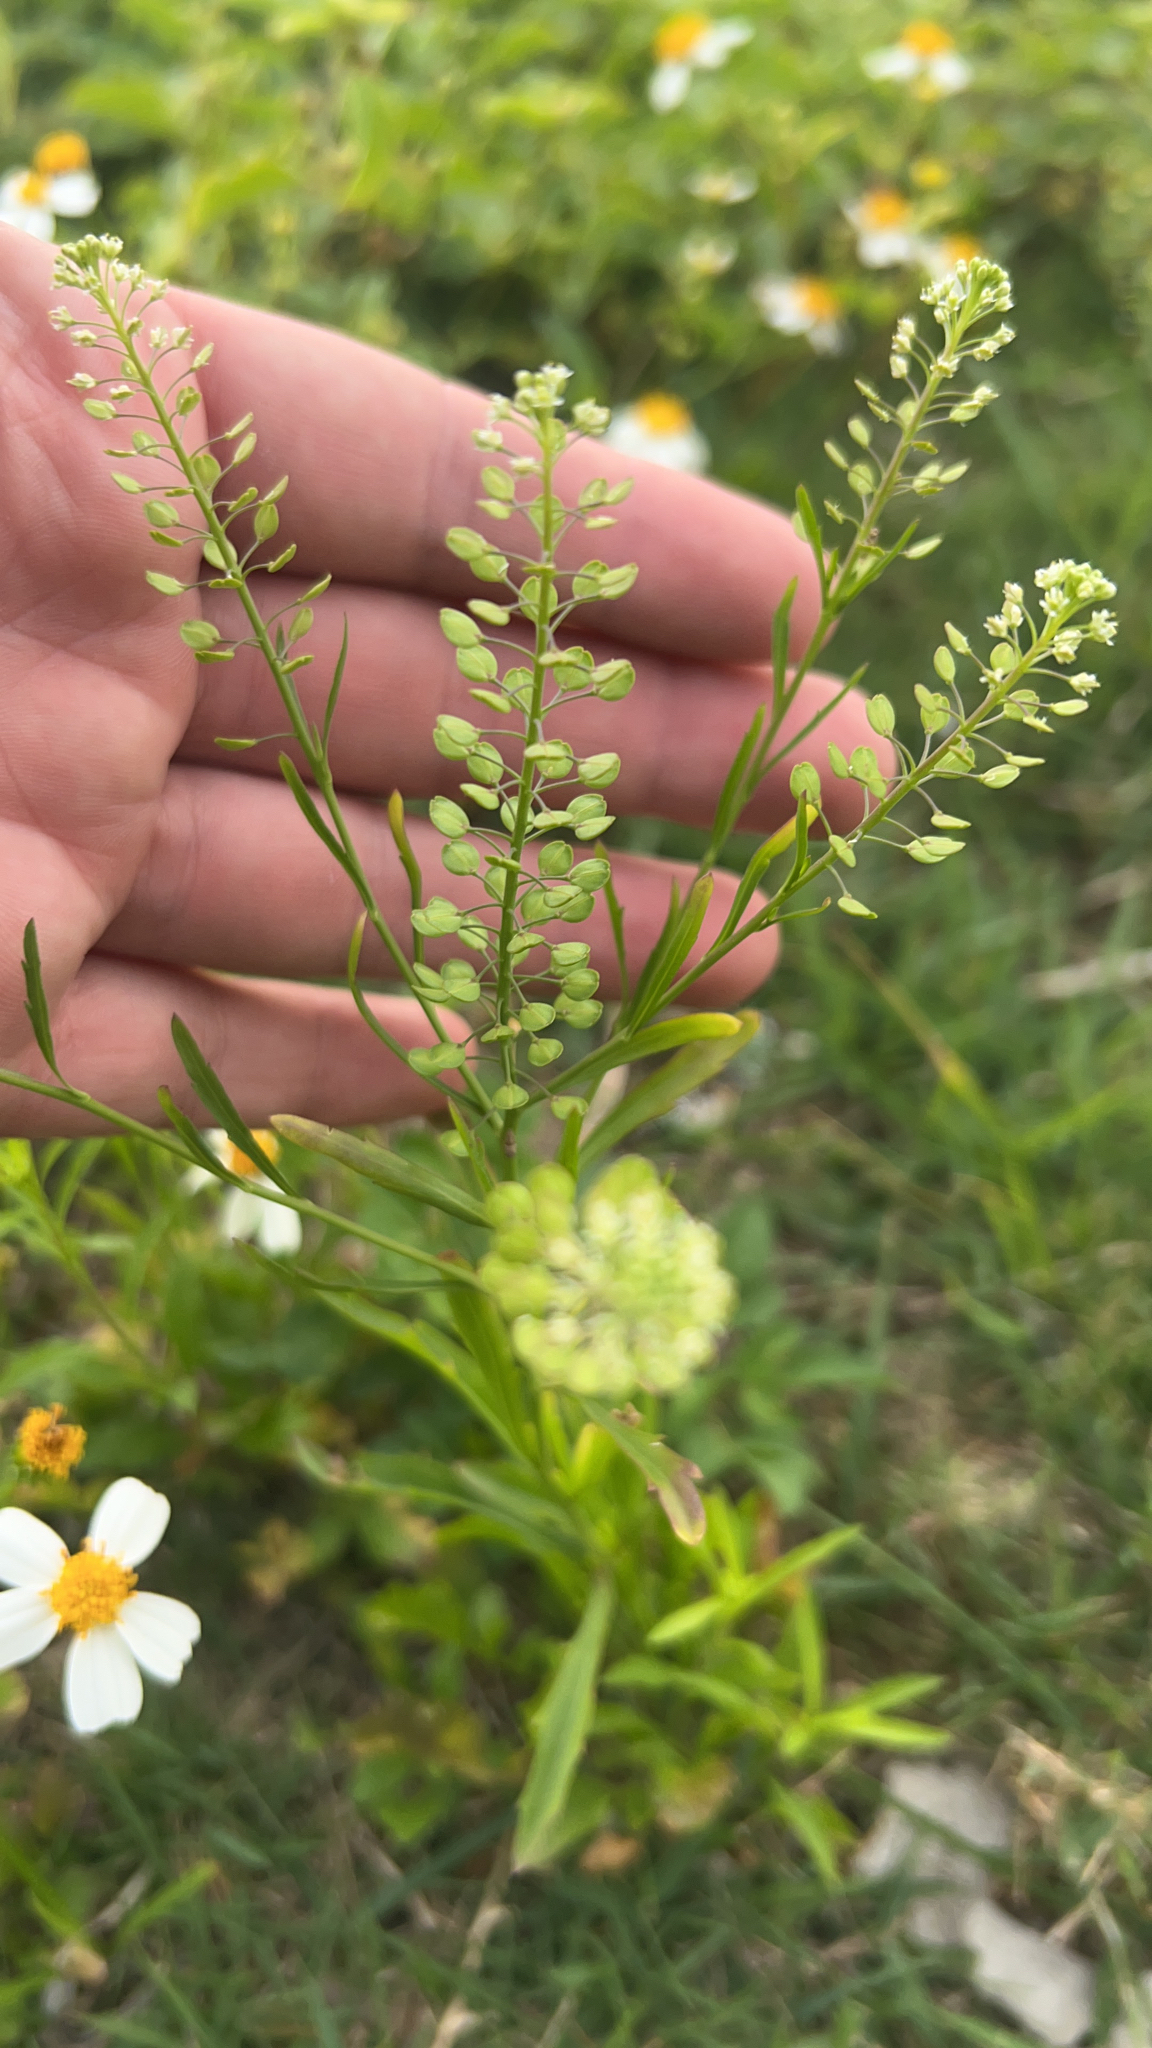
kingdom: Plantae
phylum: Tracheophyta
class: Magnoliopsida
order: Brassicales
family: Brassicaceae
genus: Lepidium
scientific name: Lepidium virginicum
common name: Least pepperwort
